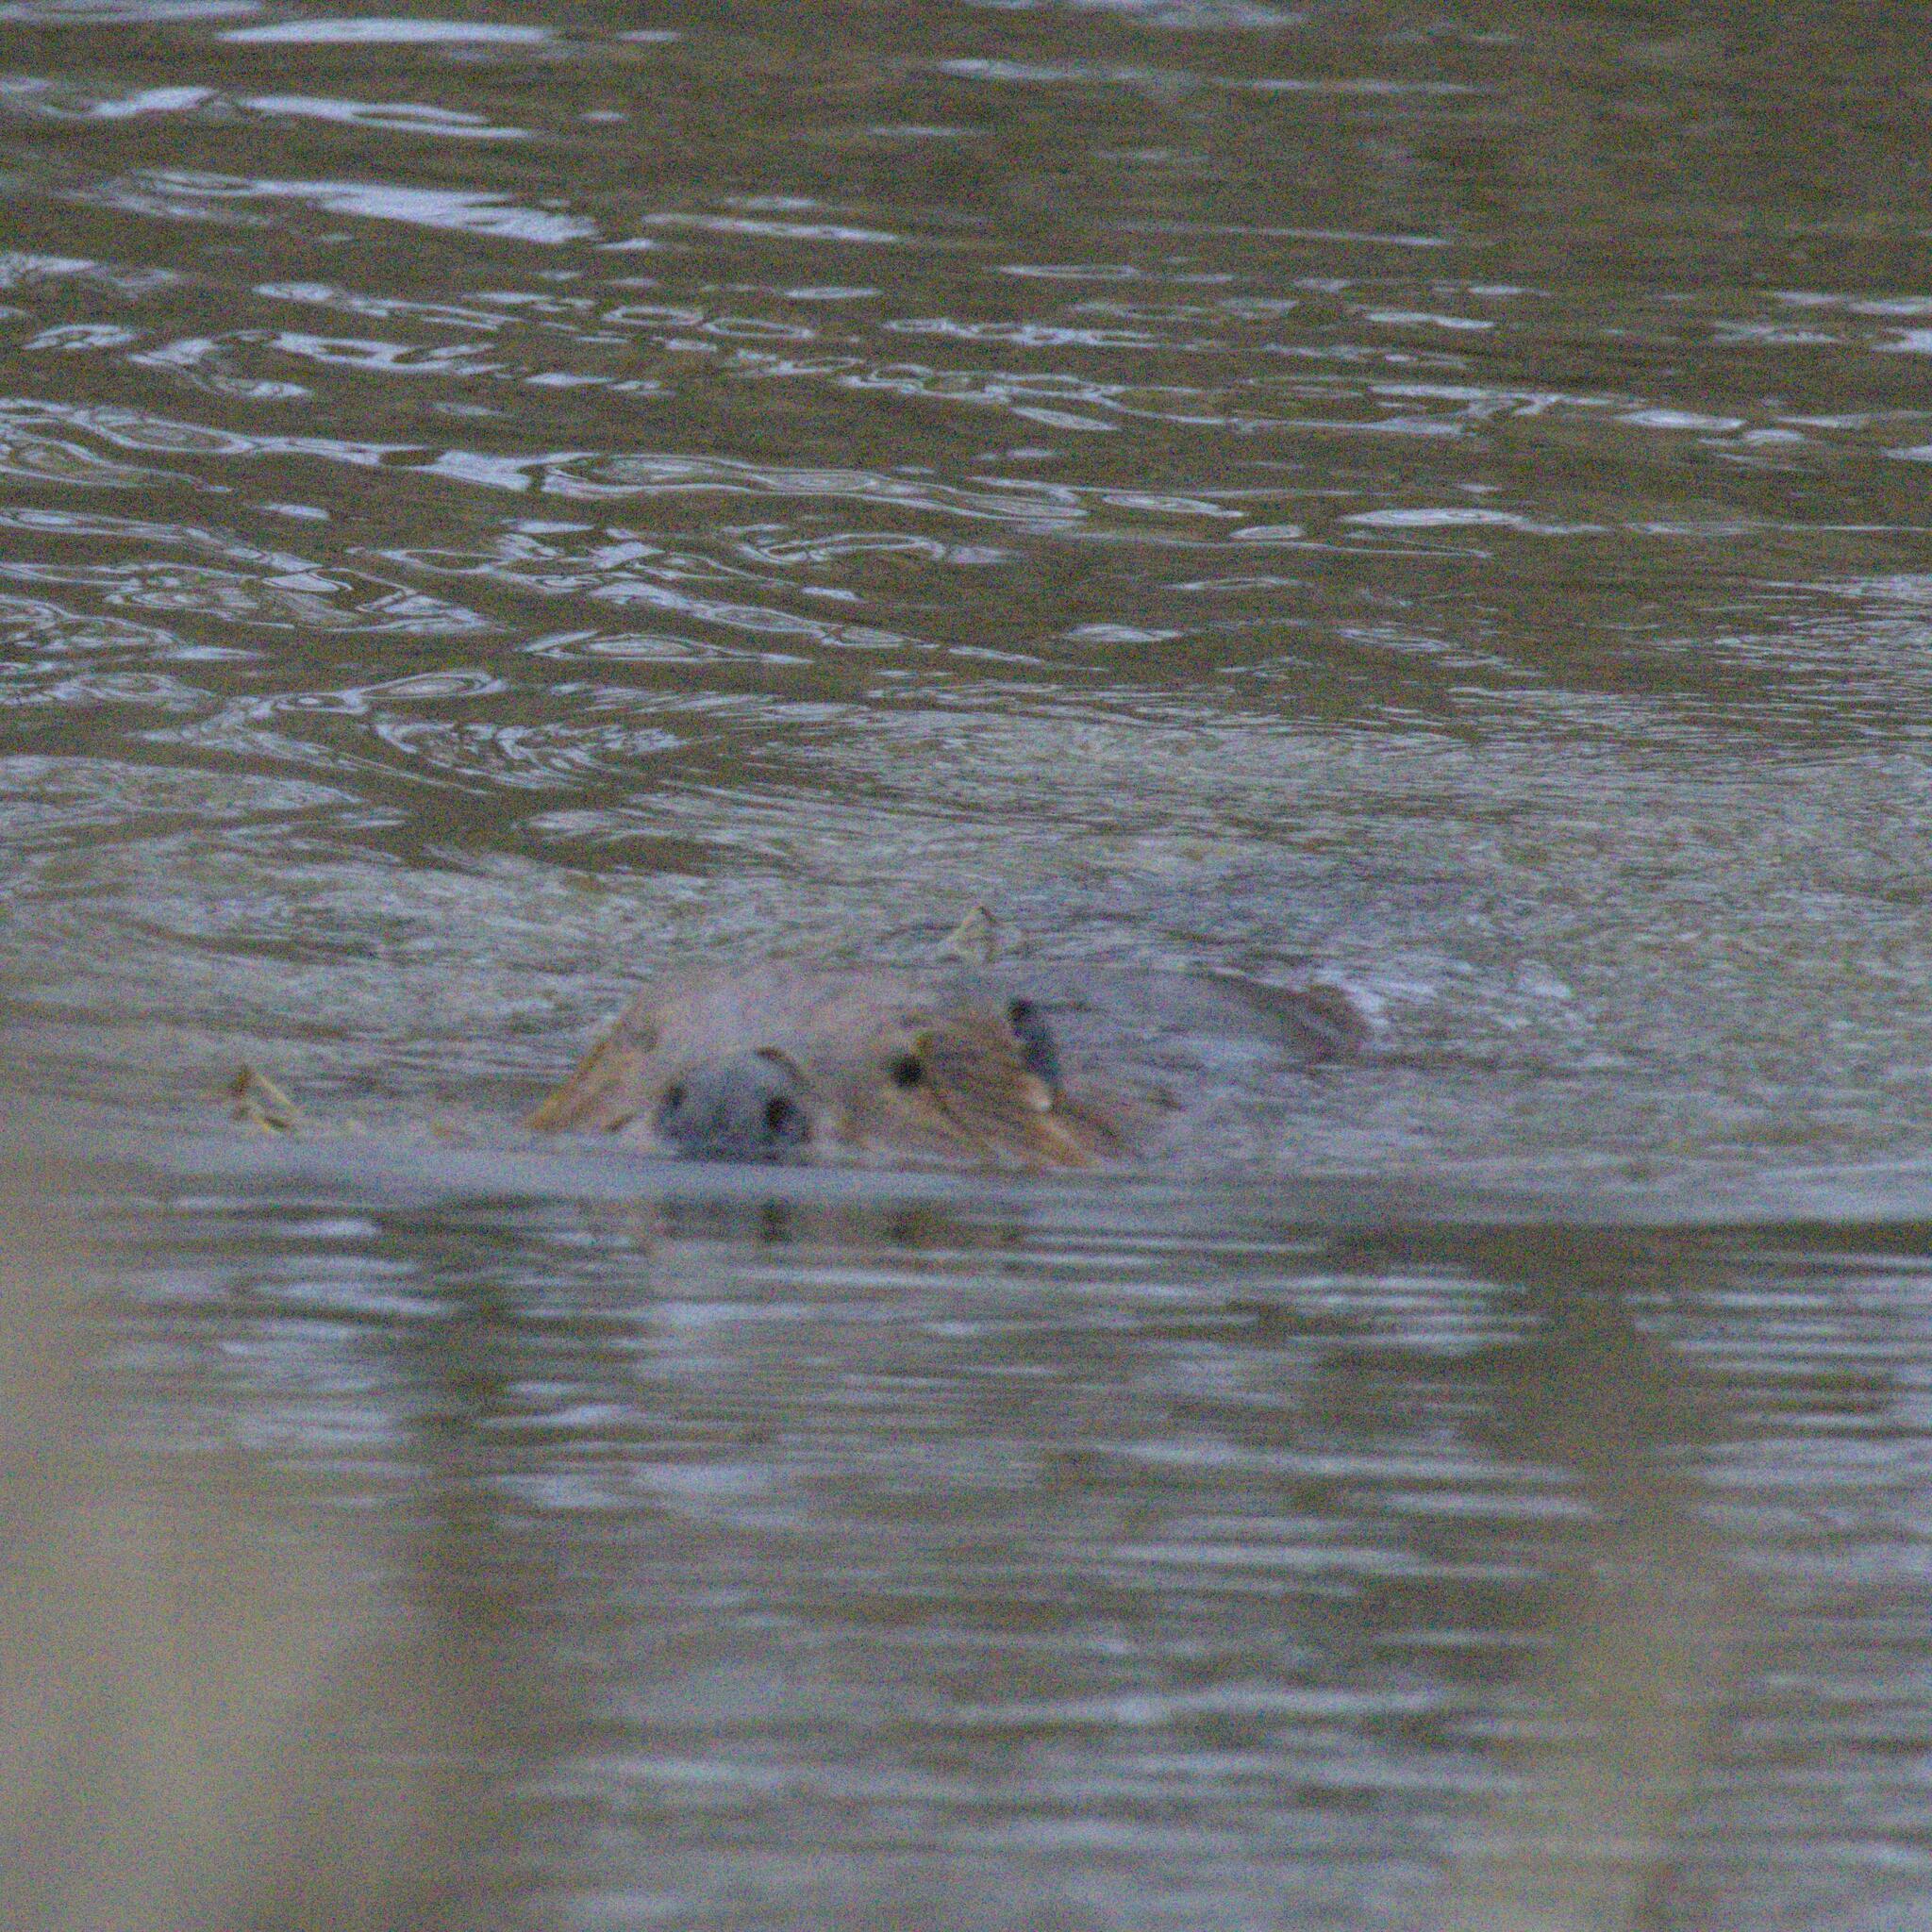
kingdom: Animalia
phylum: Chordata
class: Mammalia
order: Rodentia
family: Castoridae
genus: Castor
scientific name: Castor canadensis
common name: American beaver
